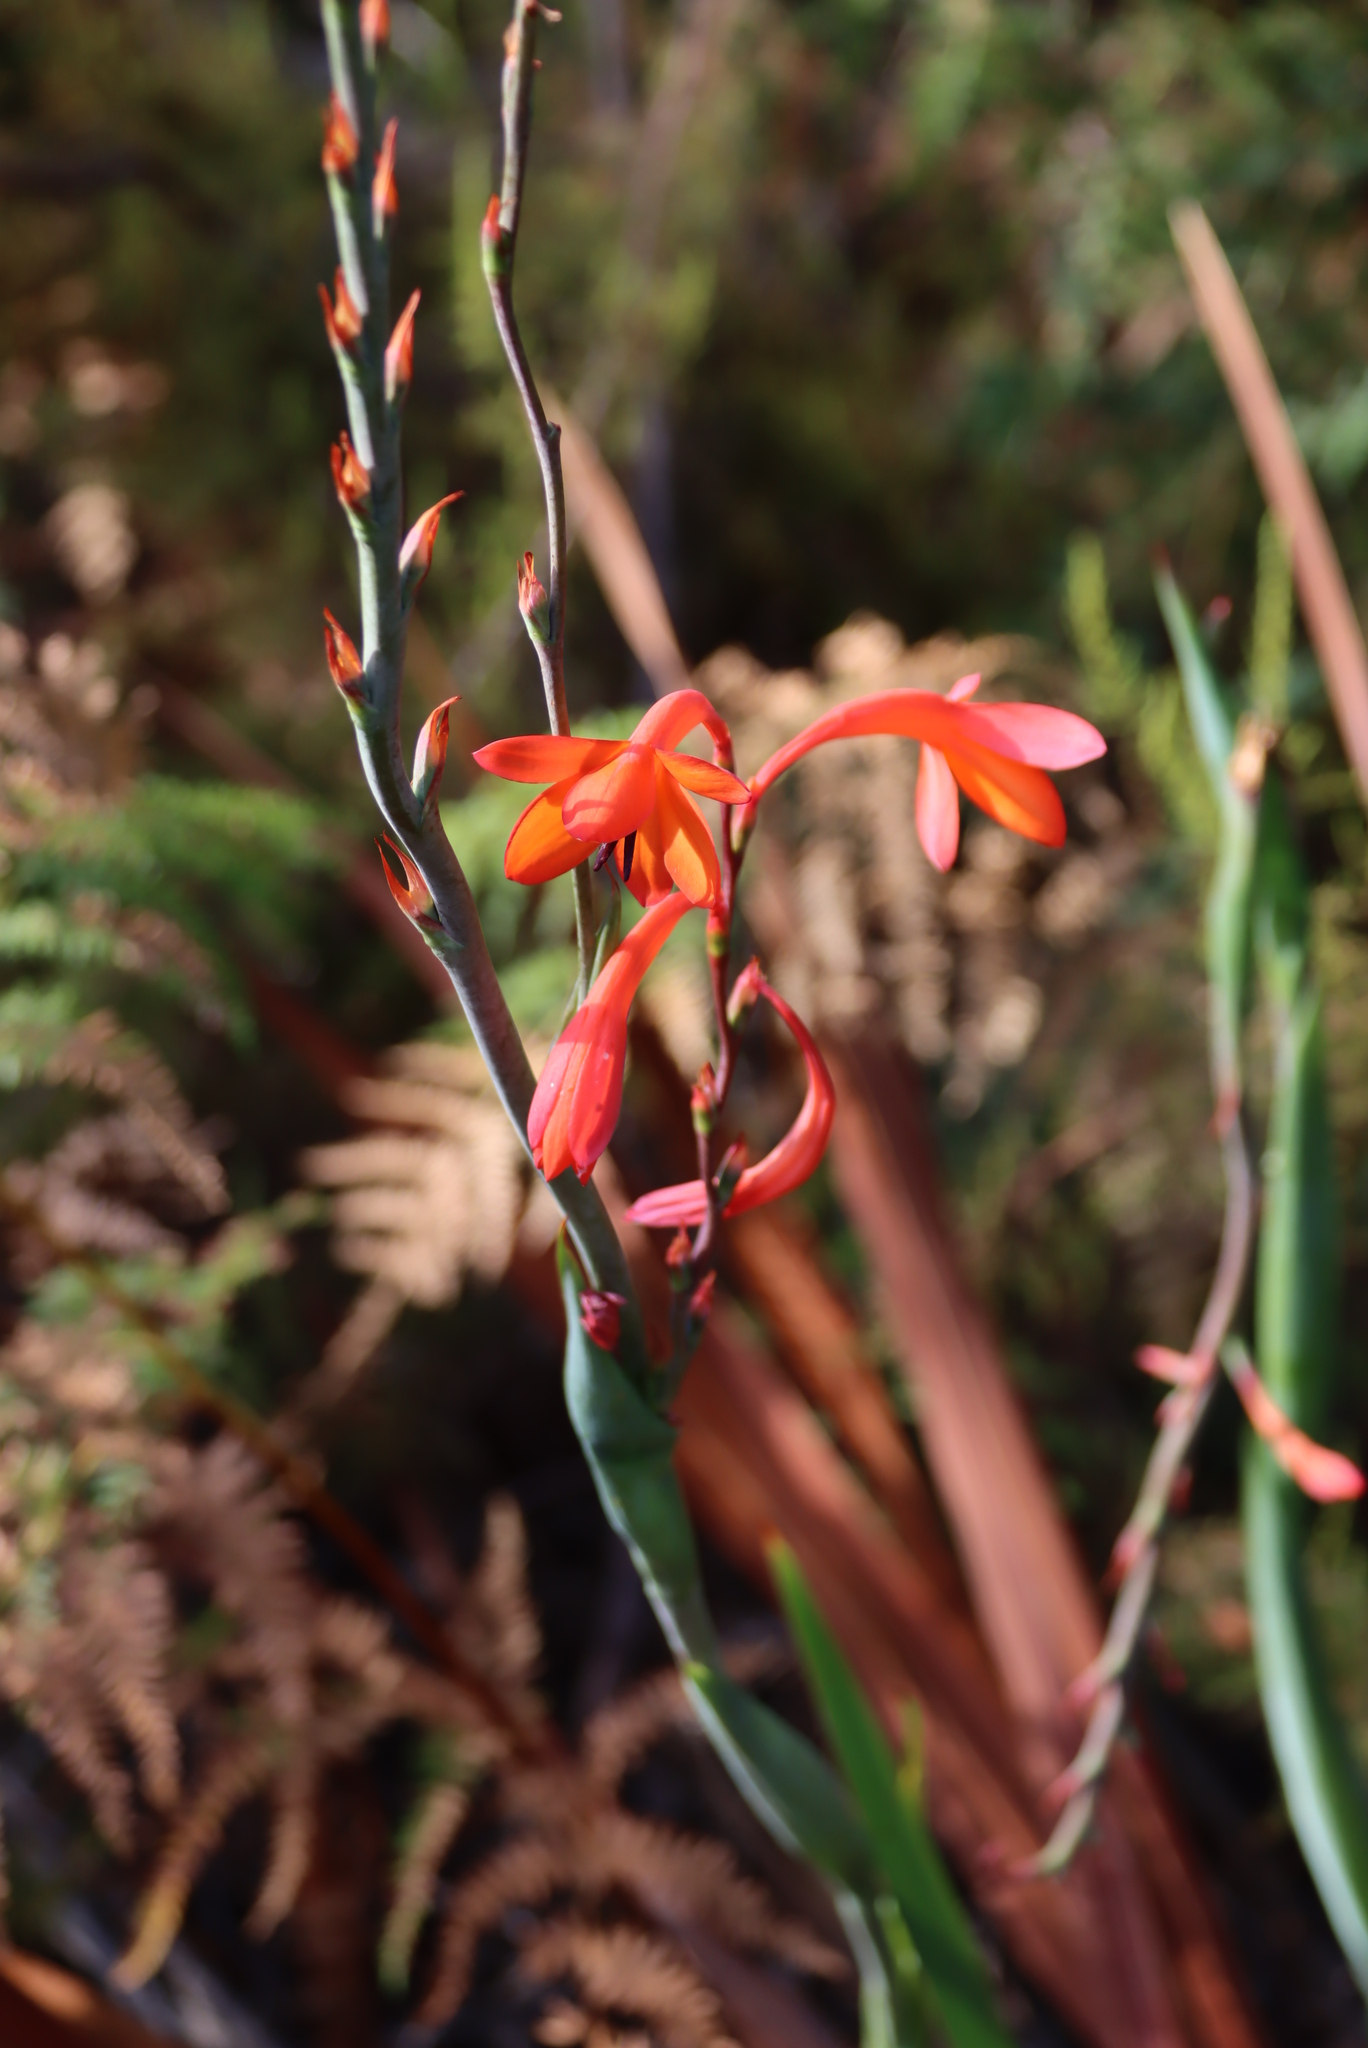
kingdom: Plantae
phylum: Tracheophyta
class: Liliopsida
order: Asparagales
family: Iridaceae
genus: Watsonia
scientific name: Watsonia tabularis
